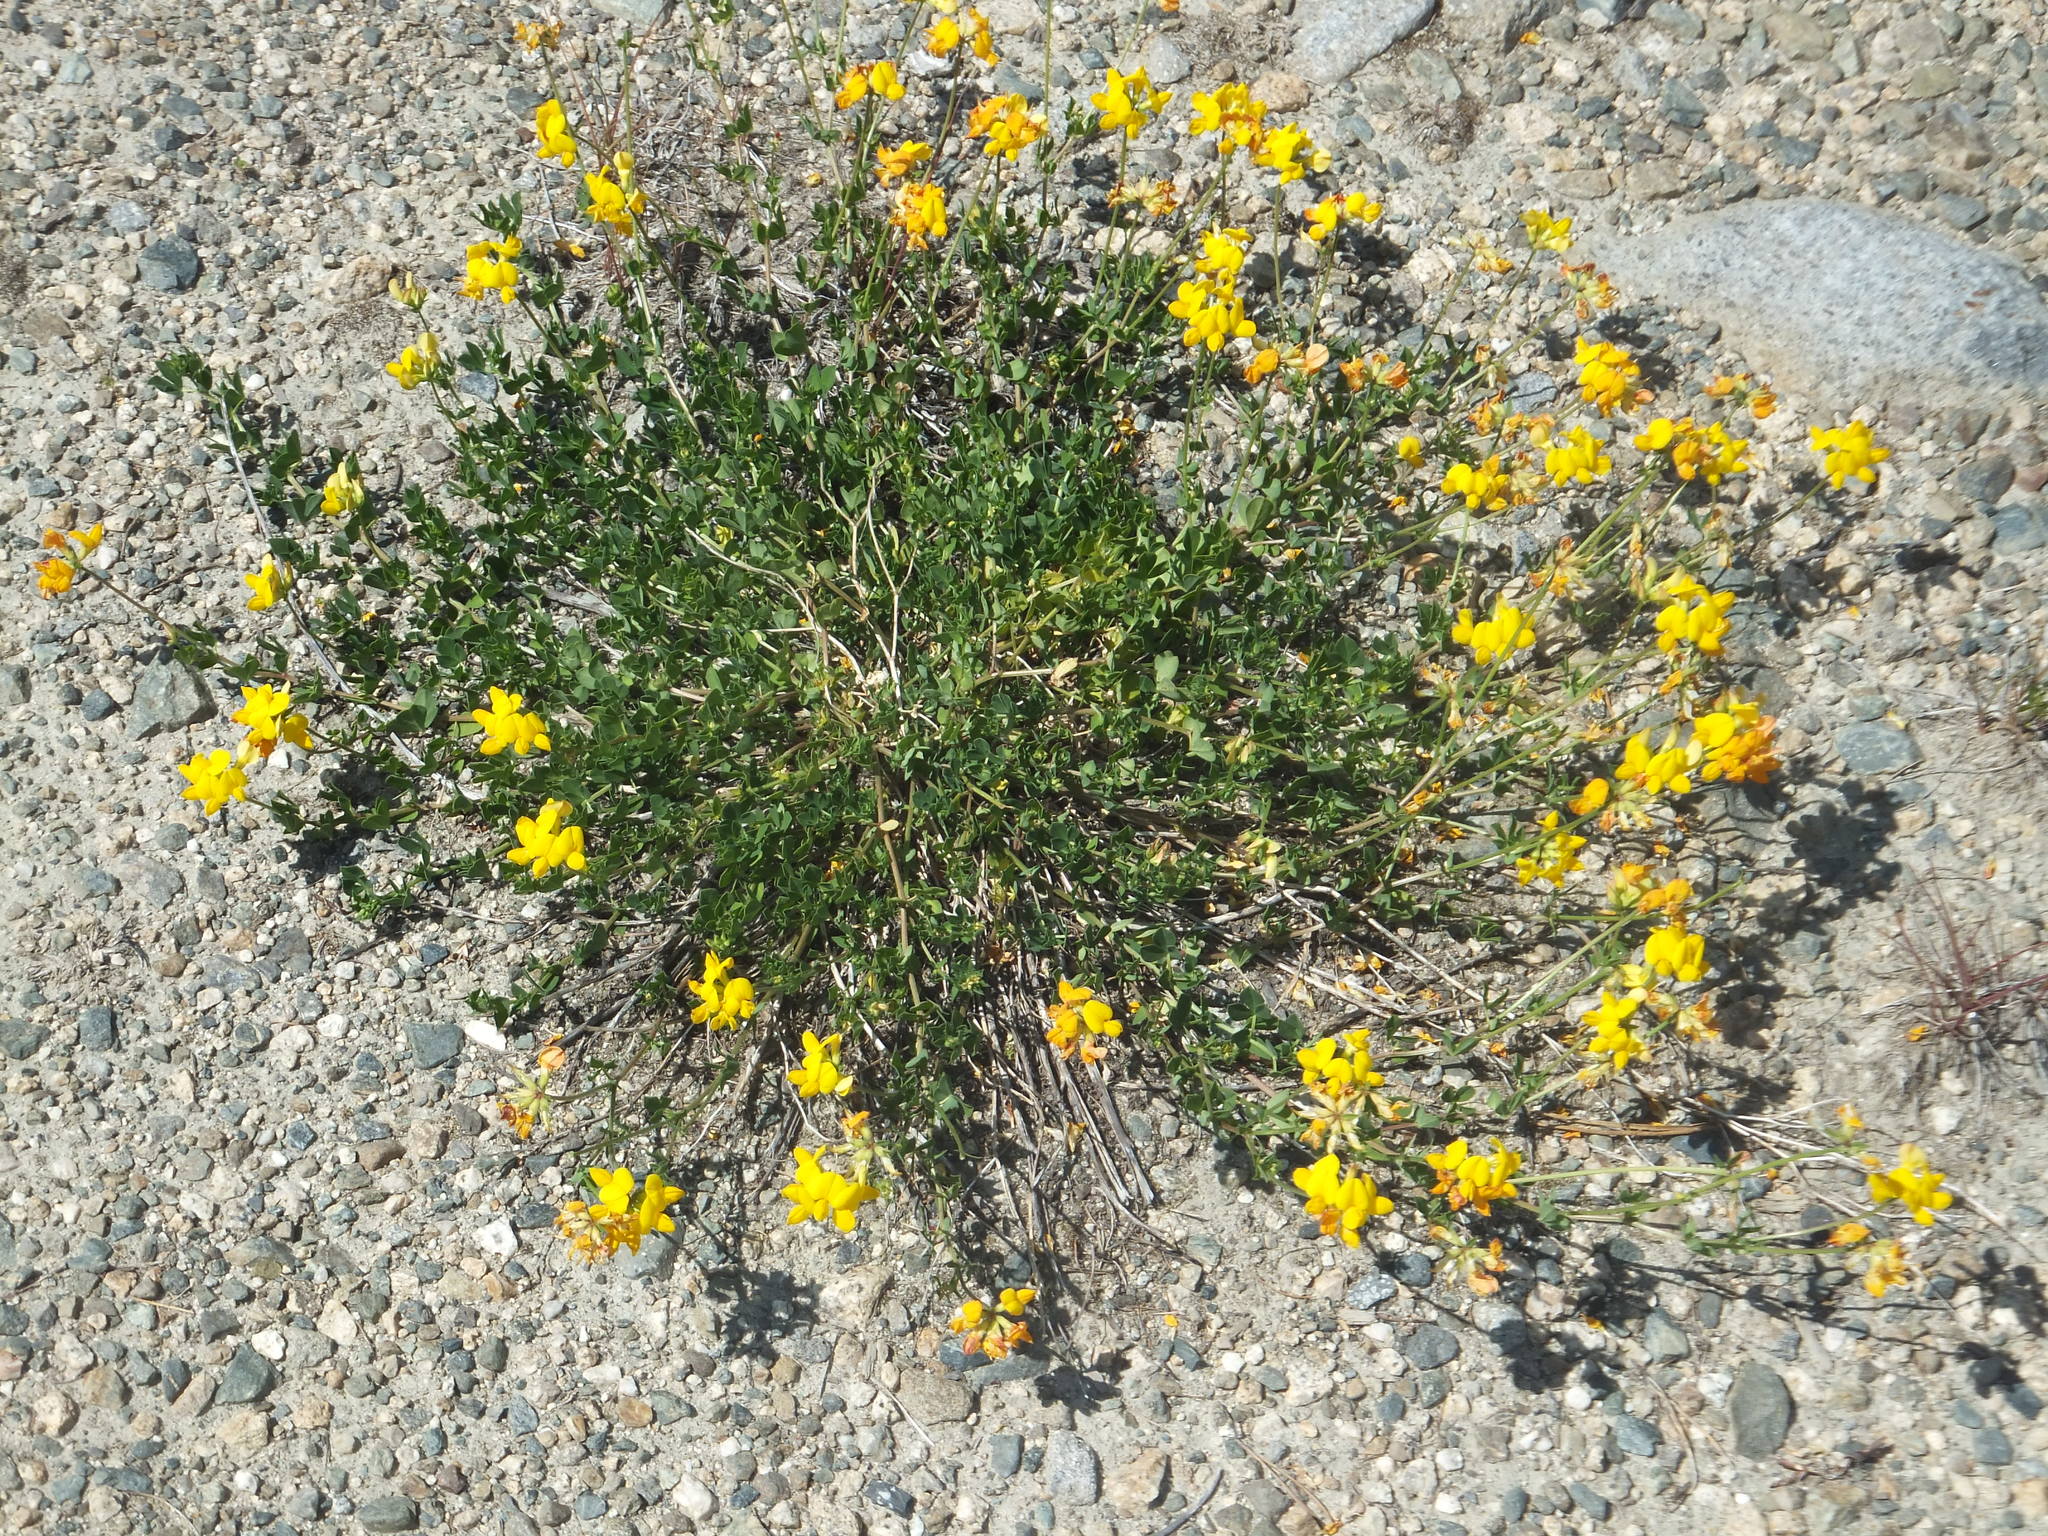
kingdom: Plantae
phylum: Tracheophyta
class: Magnoliopsida
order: Fabales
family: Fabaceae
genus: Lotus
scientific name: Lotus corniculatus
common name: Common bird's-foot-trefoil
